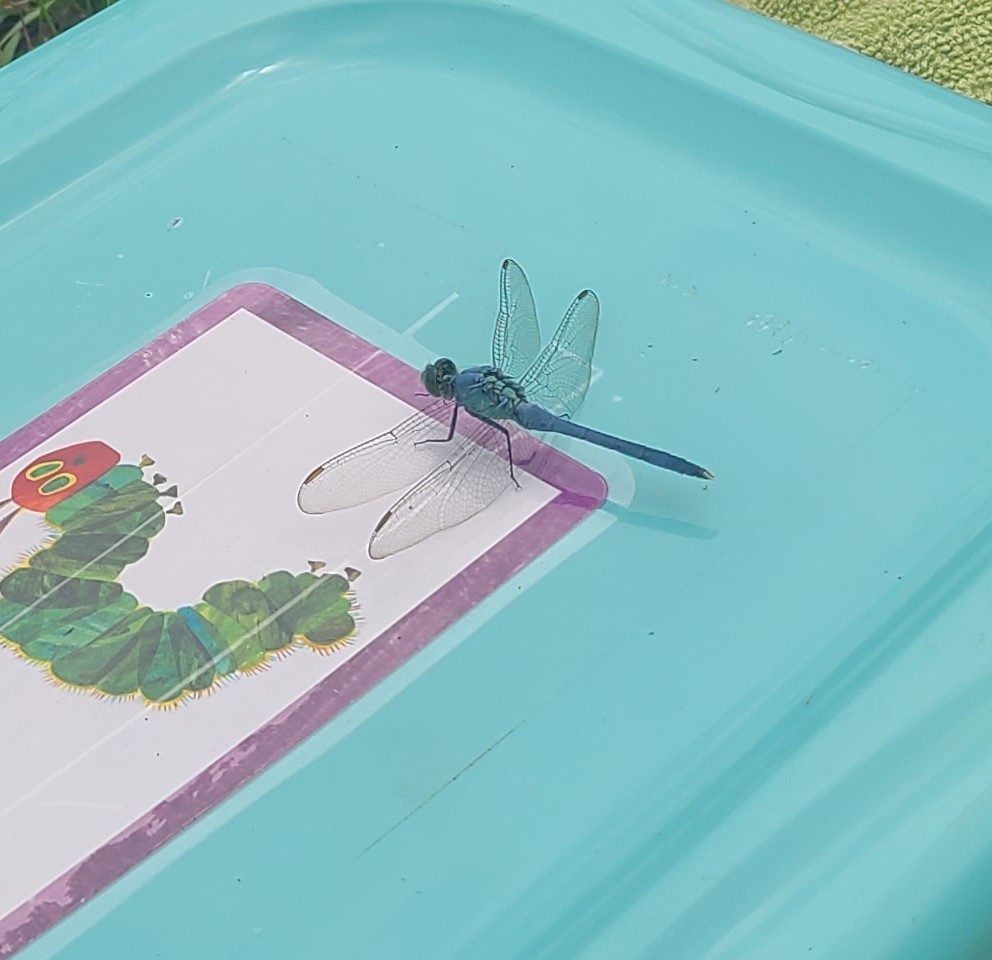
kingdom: Animalia
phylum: Arthropoda
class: Insecta
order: Odonata
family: Libellulidae
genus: Erythemis
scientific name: Erythemis simplicicollis
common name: Eastern pondhawk
